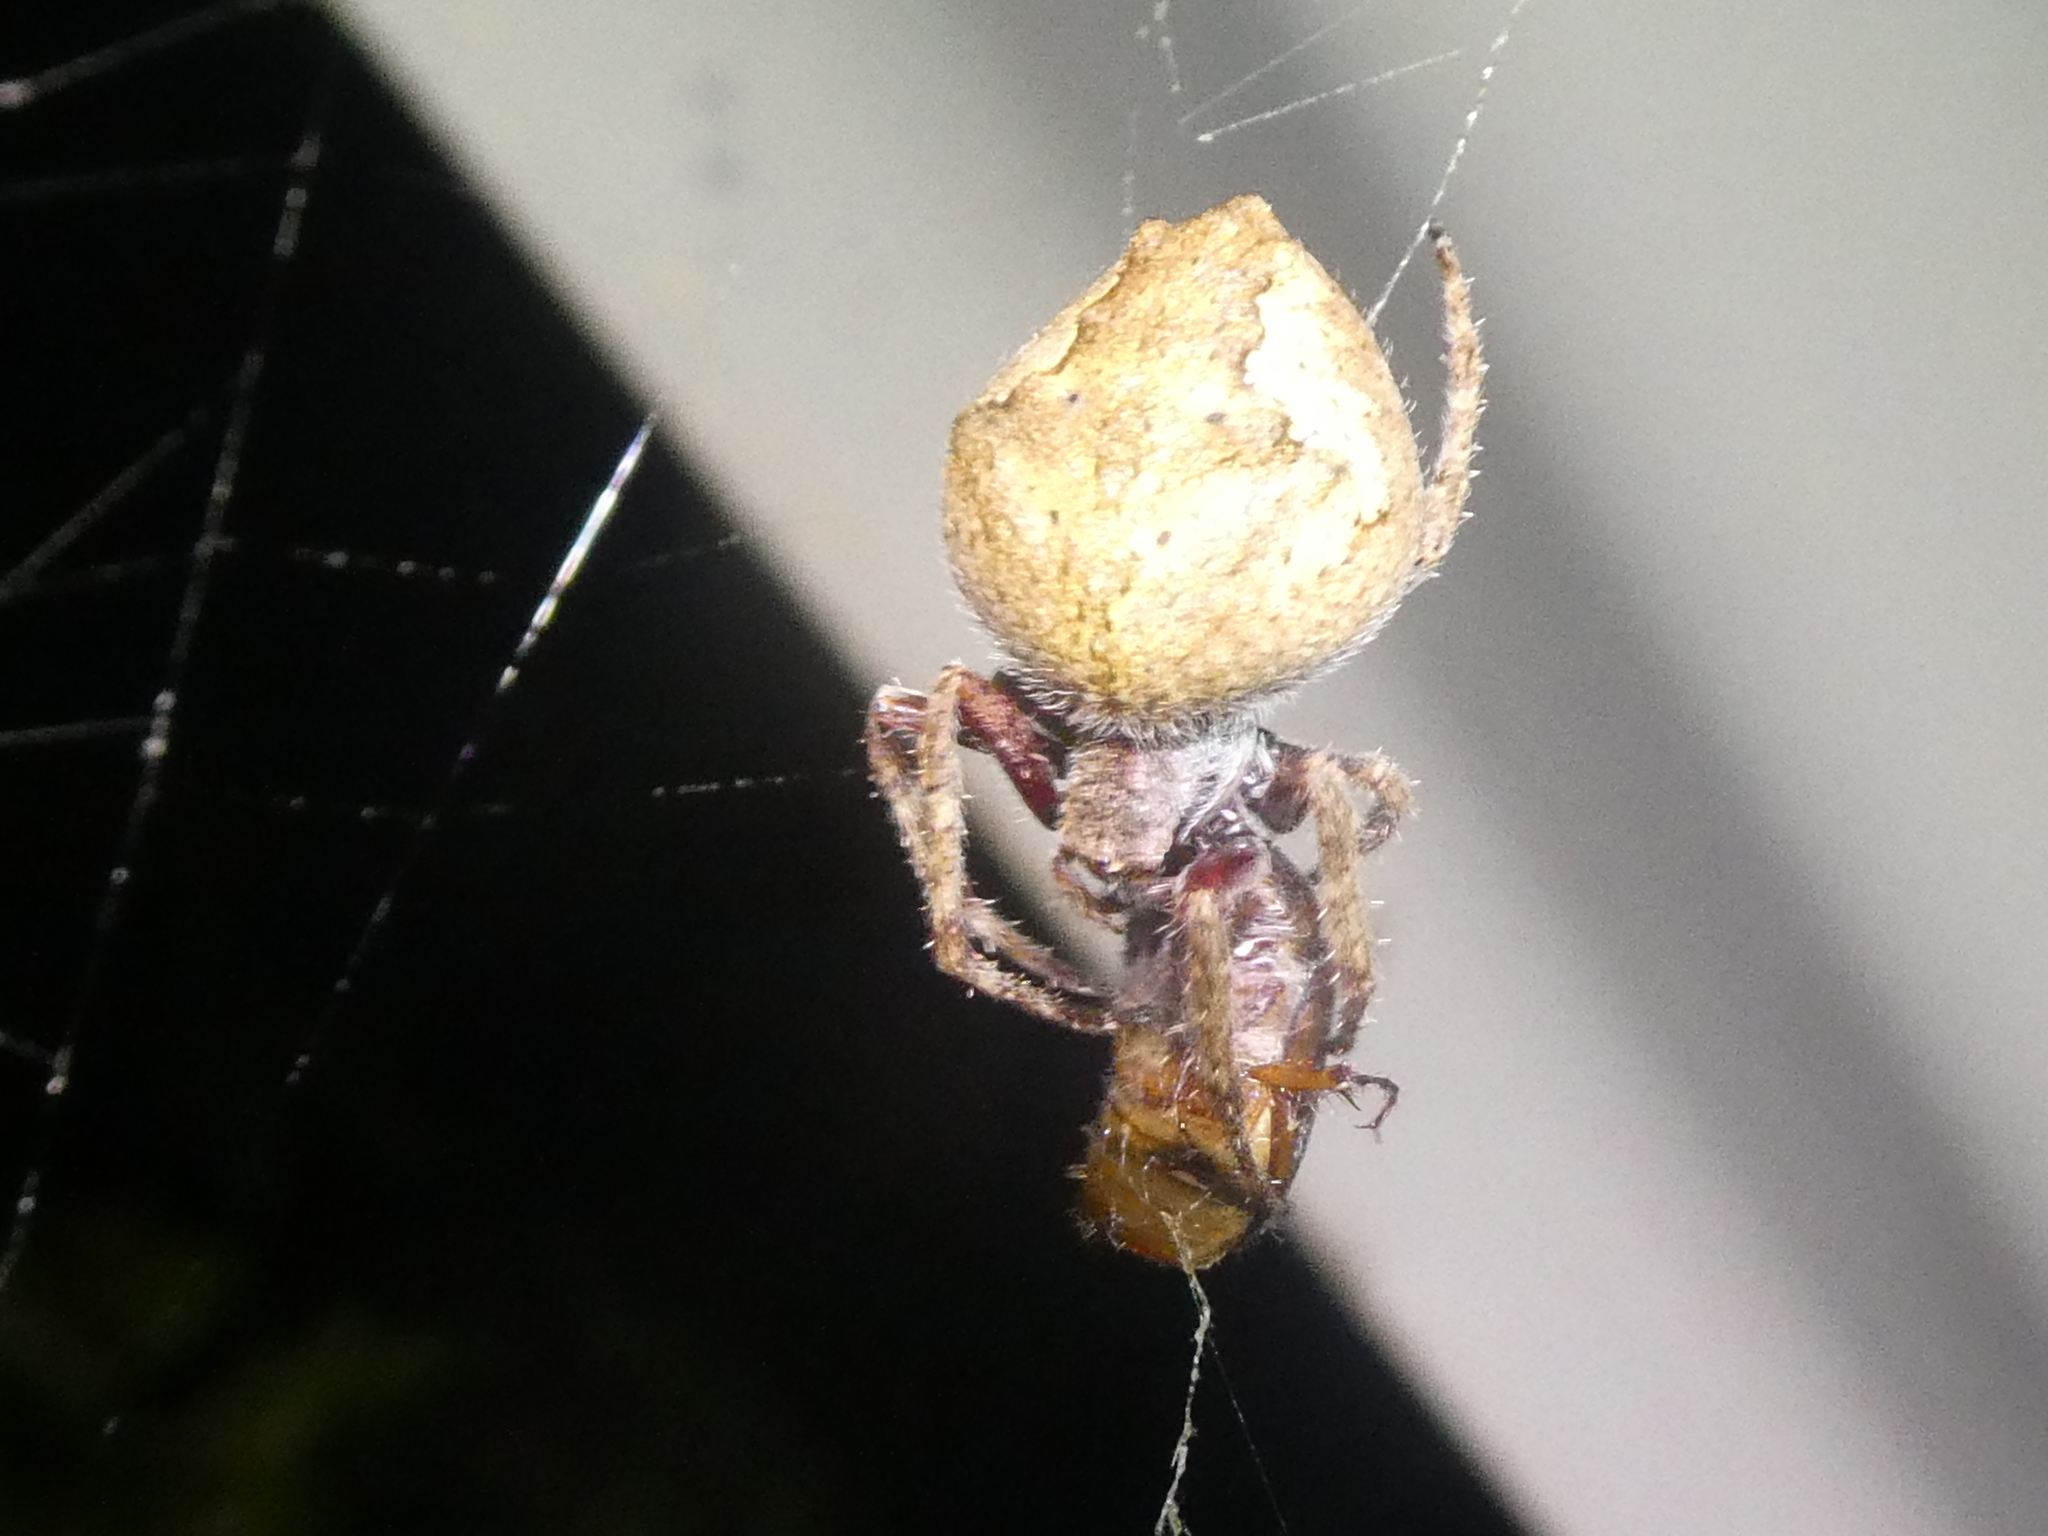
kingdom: Animalia
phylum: Arthropoda
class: Arachnida
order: Araneae
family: Araneidae
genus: Eriophora
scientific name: Eriophora pustulosa
